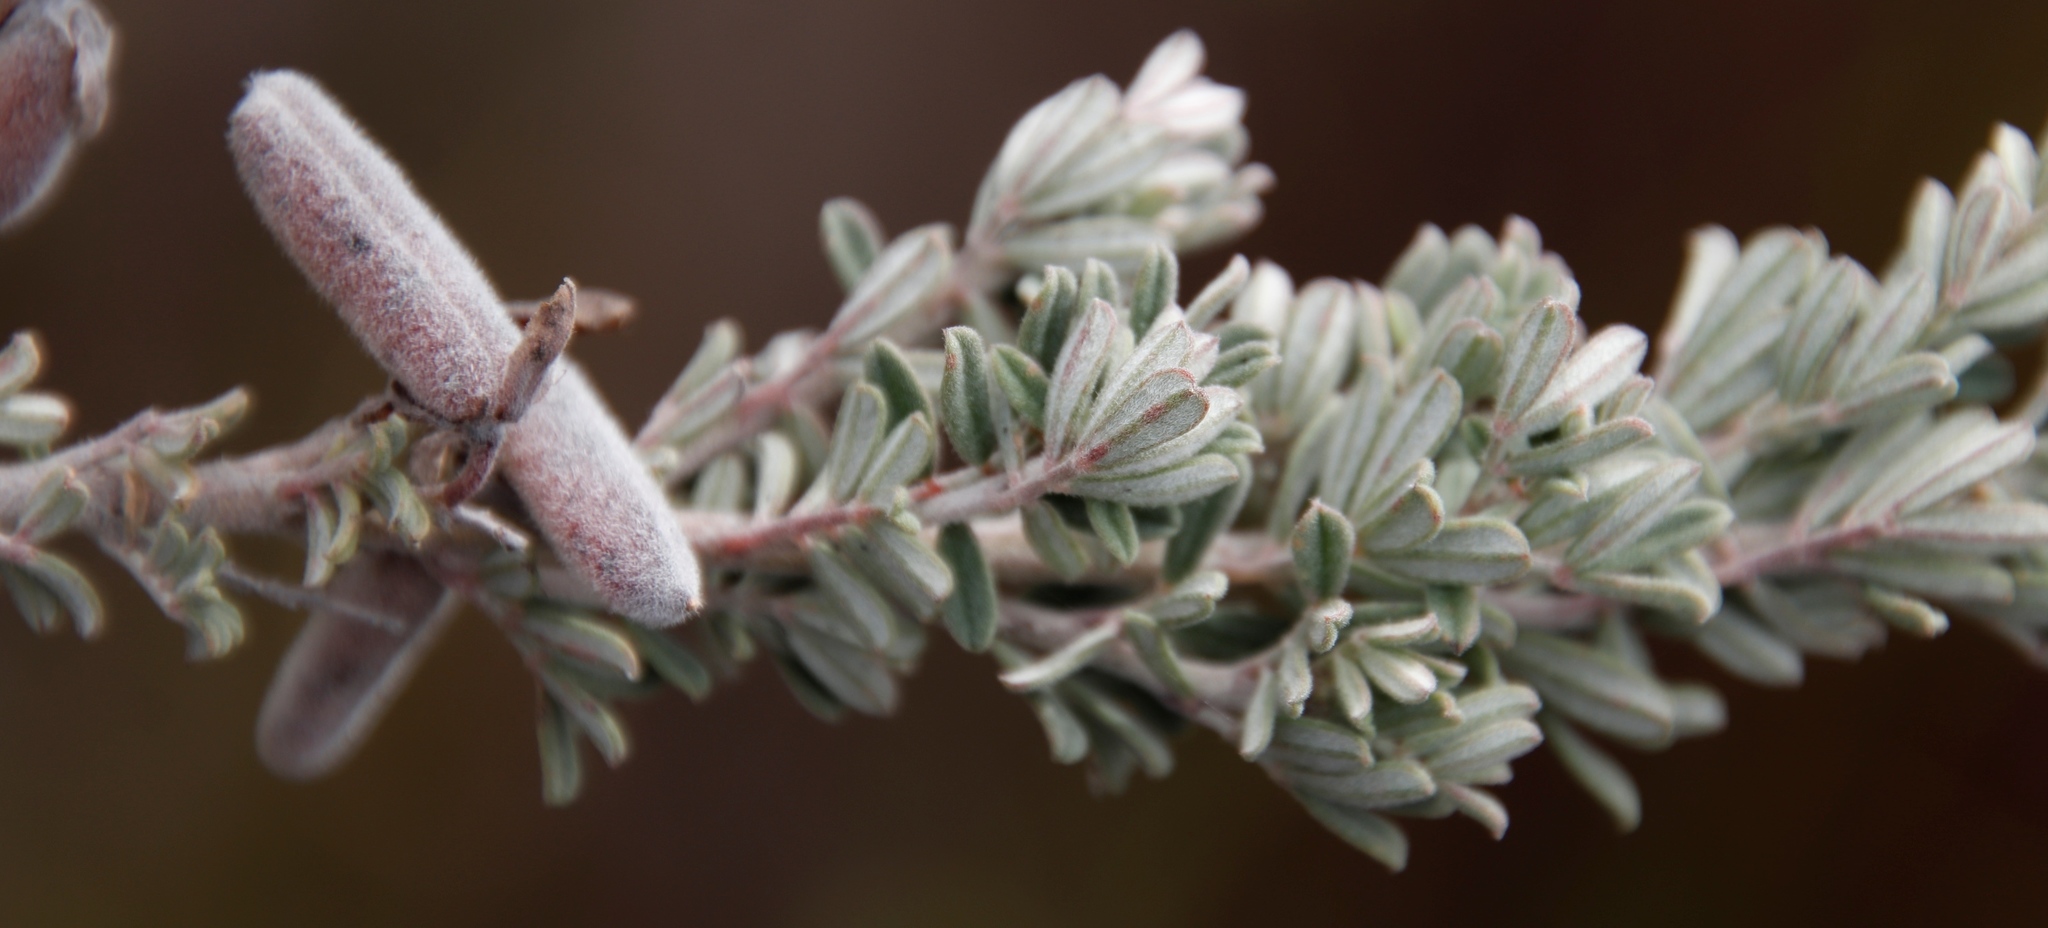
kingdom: Plantae
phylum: Tracheophyta
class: Magnoliopsida
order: Fabales
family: Fabaceae
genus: Indigofera
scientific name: Indigofera
